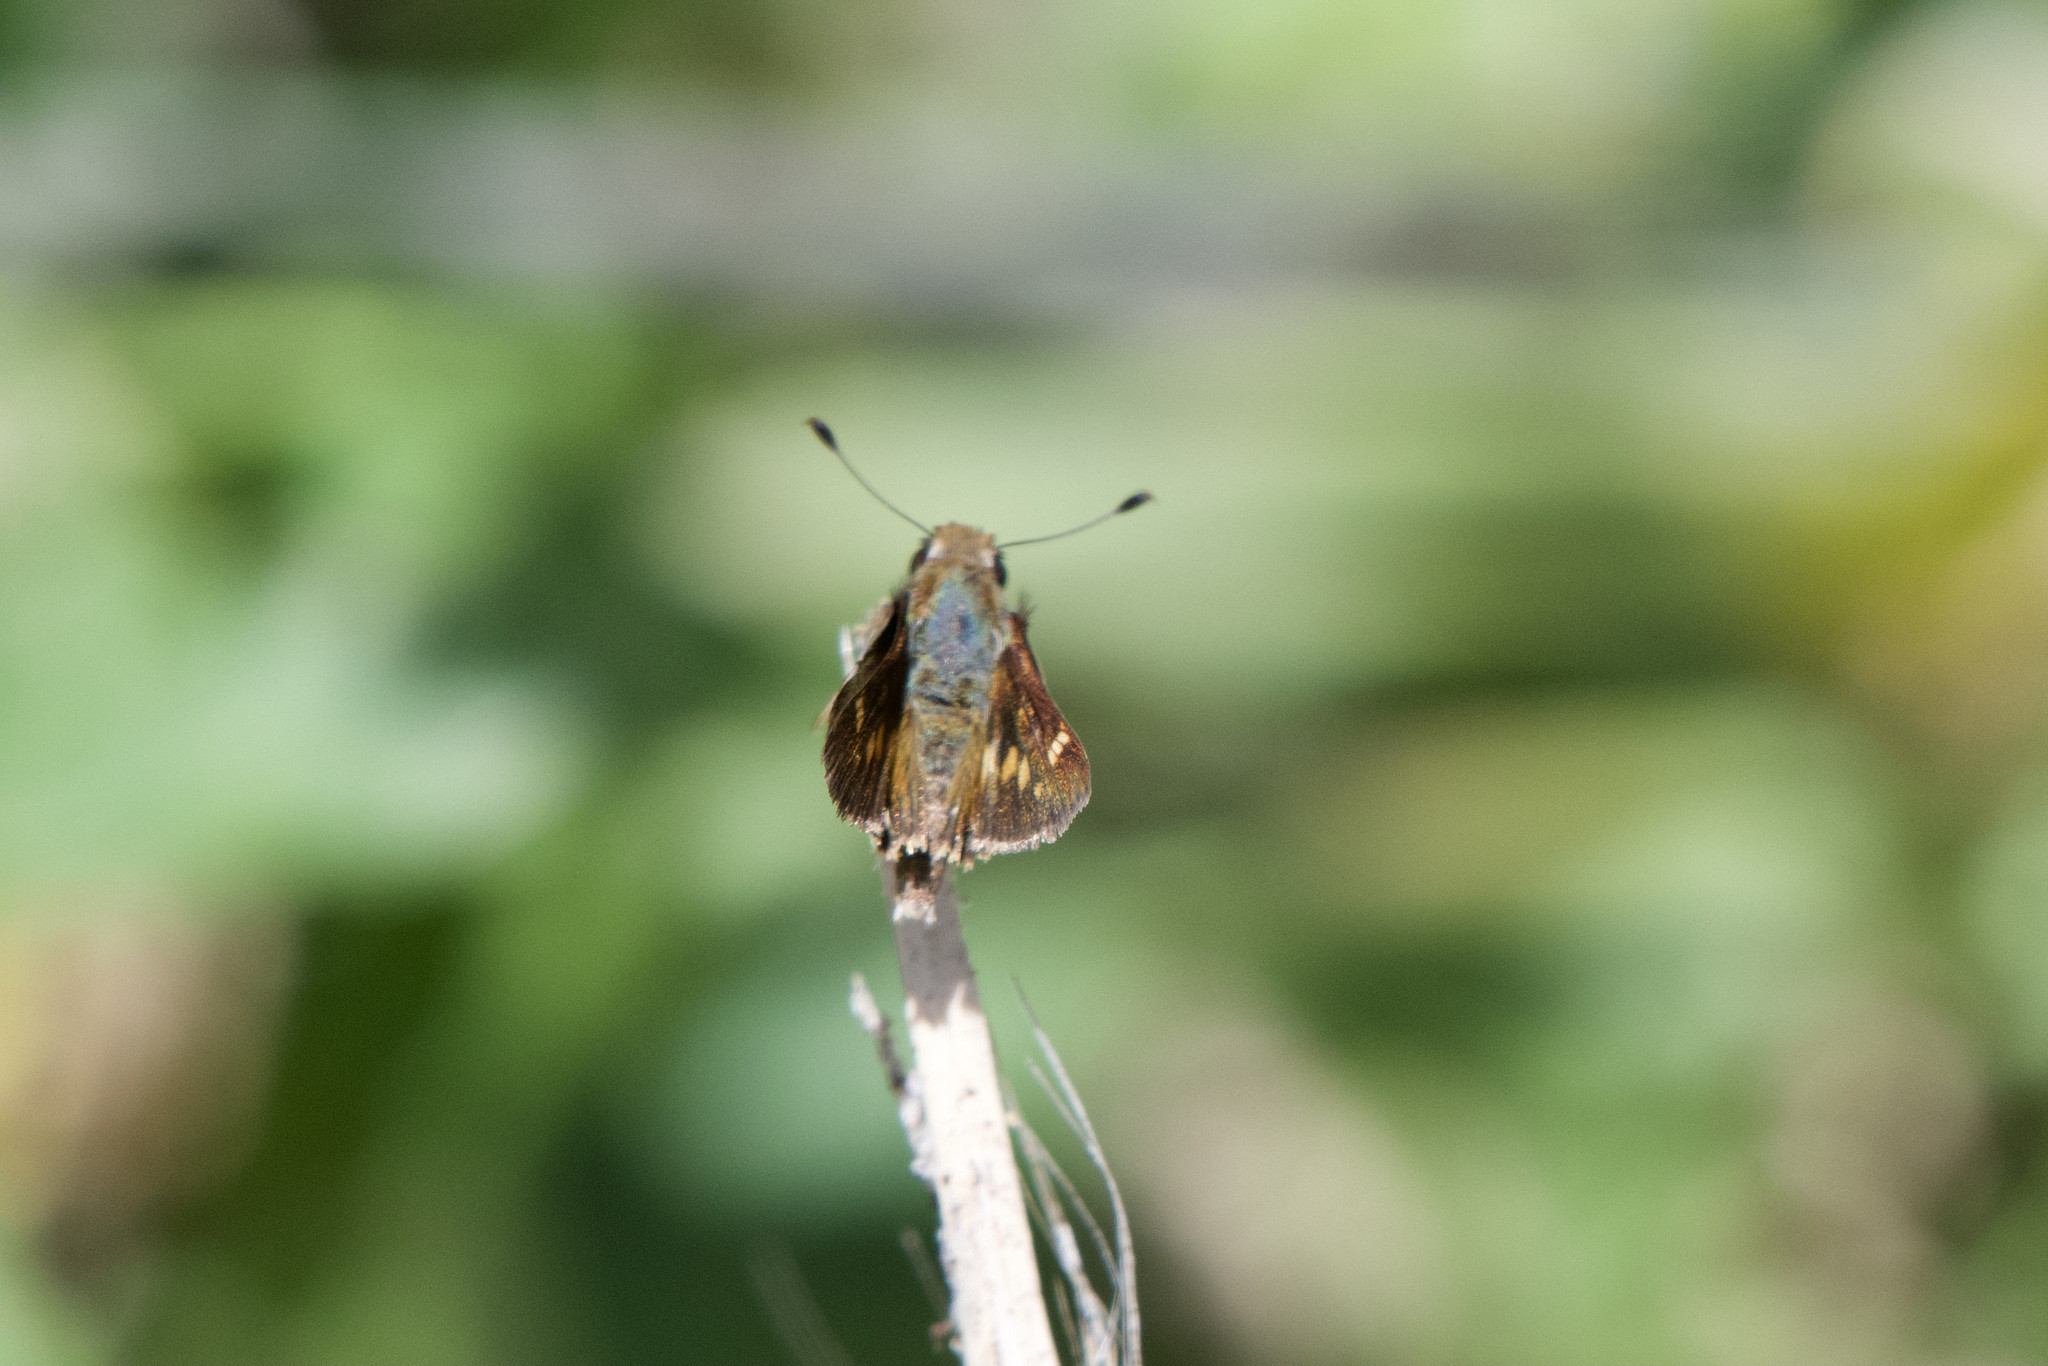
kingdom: Animalia
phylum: Arthropoda
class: Insecta
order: Lepidoptera
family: Hesperiidae
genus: Lon
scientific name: Lon melane
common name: Umber skipper
